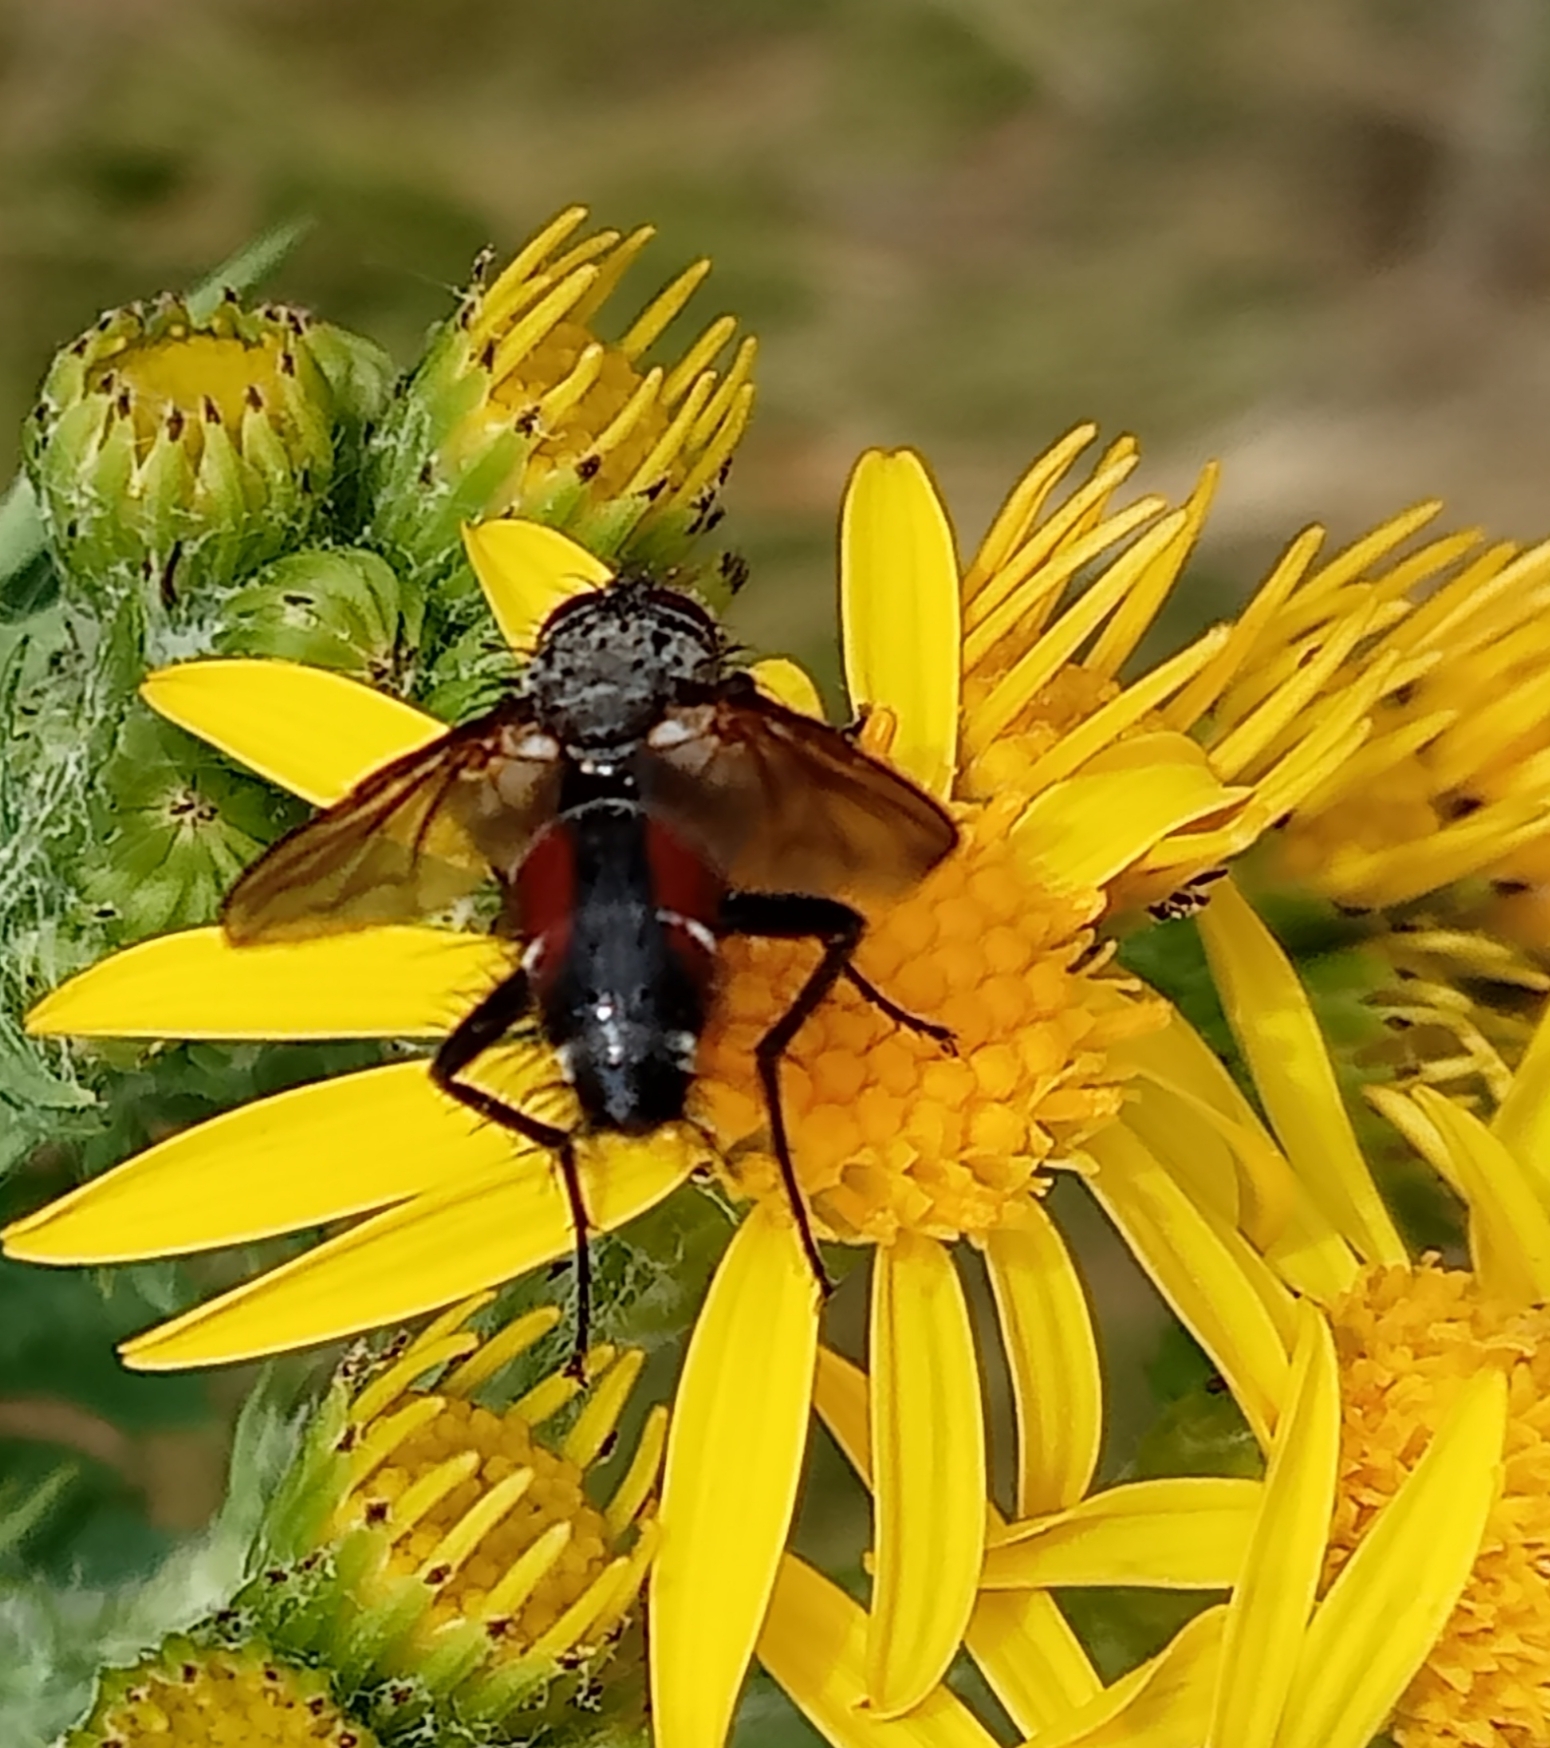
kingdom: Animalia
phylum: Arthropoda
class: Insecta
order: Diptera
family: Tachinidae
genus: Eriothrix
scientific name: Eriothrix rufomaculatus
